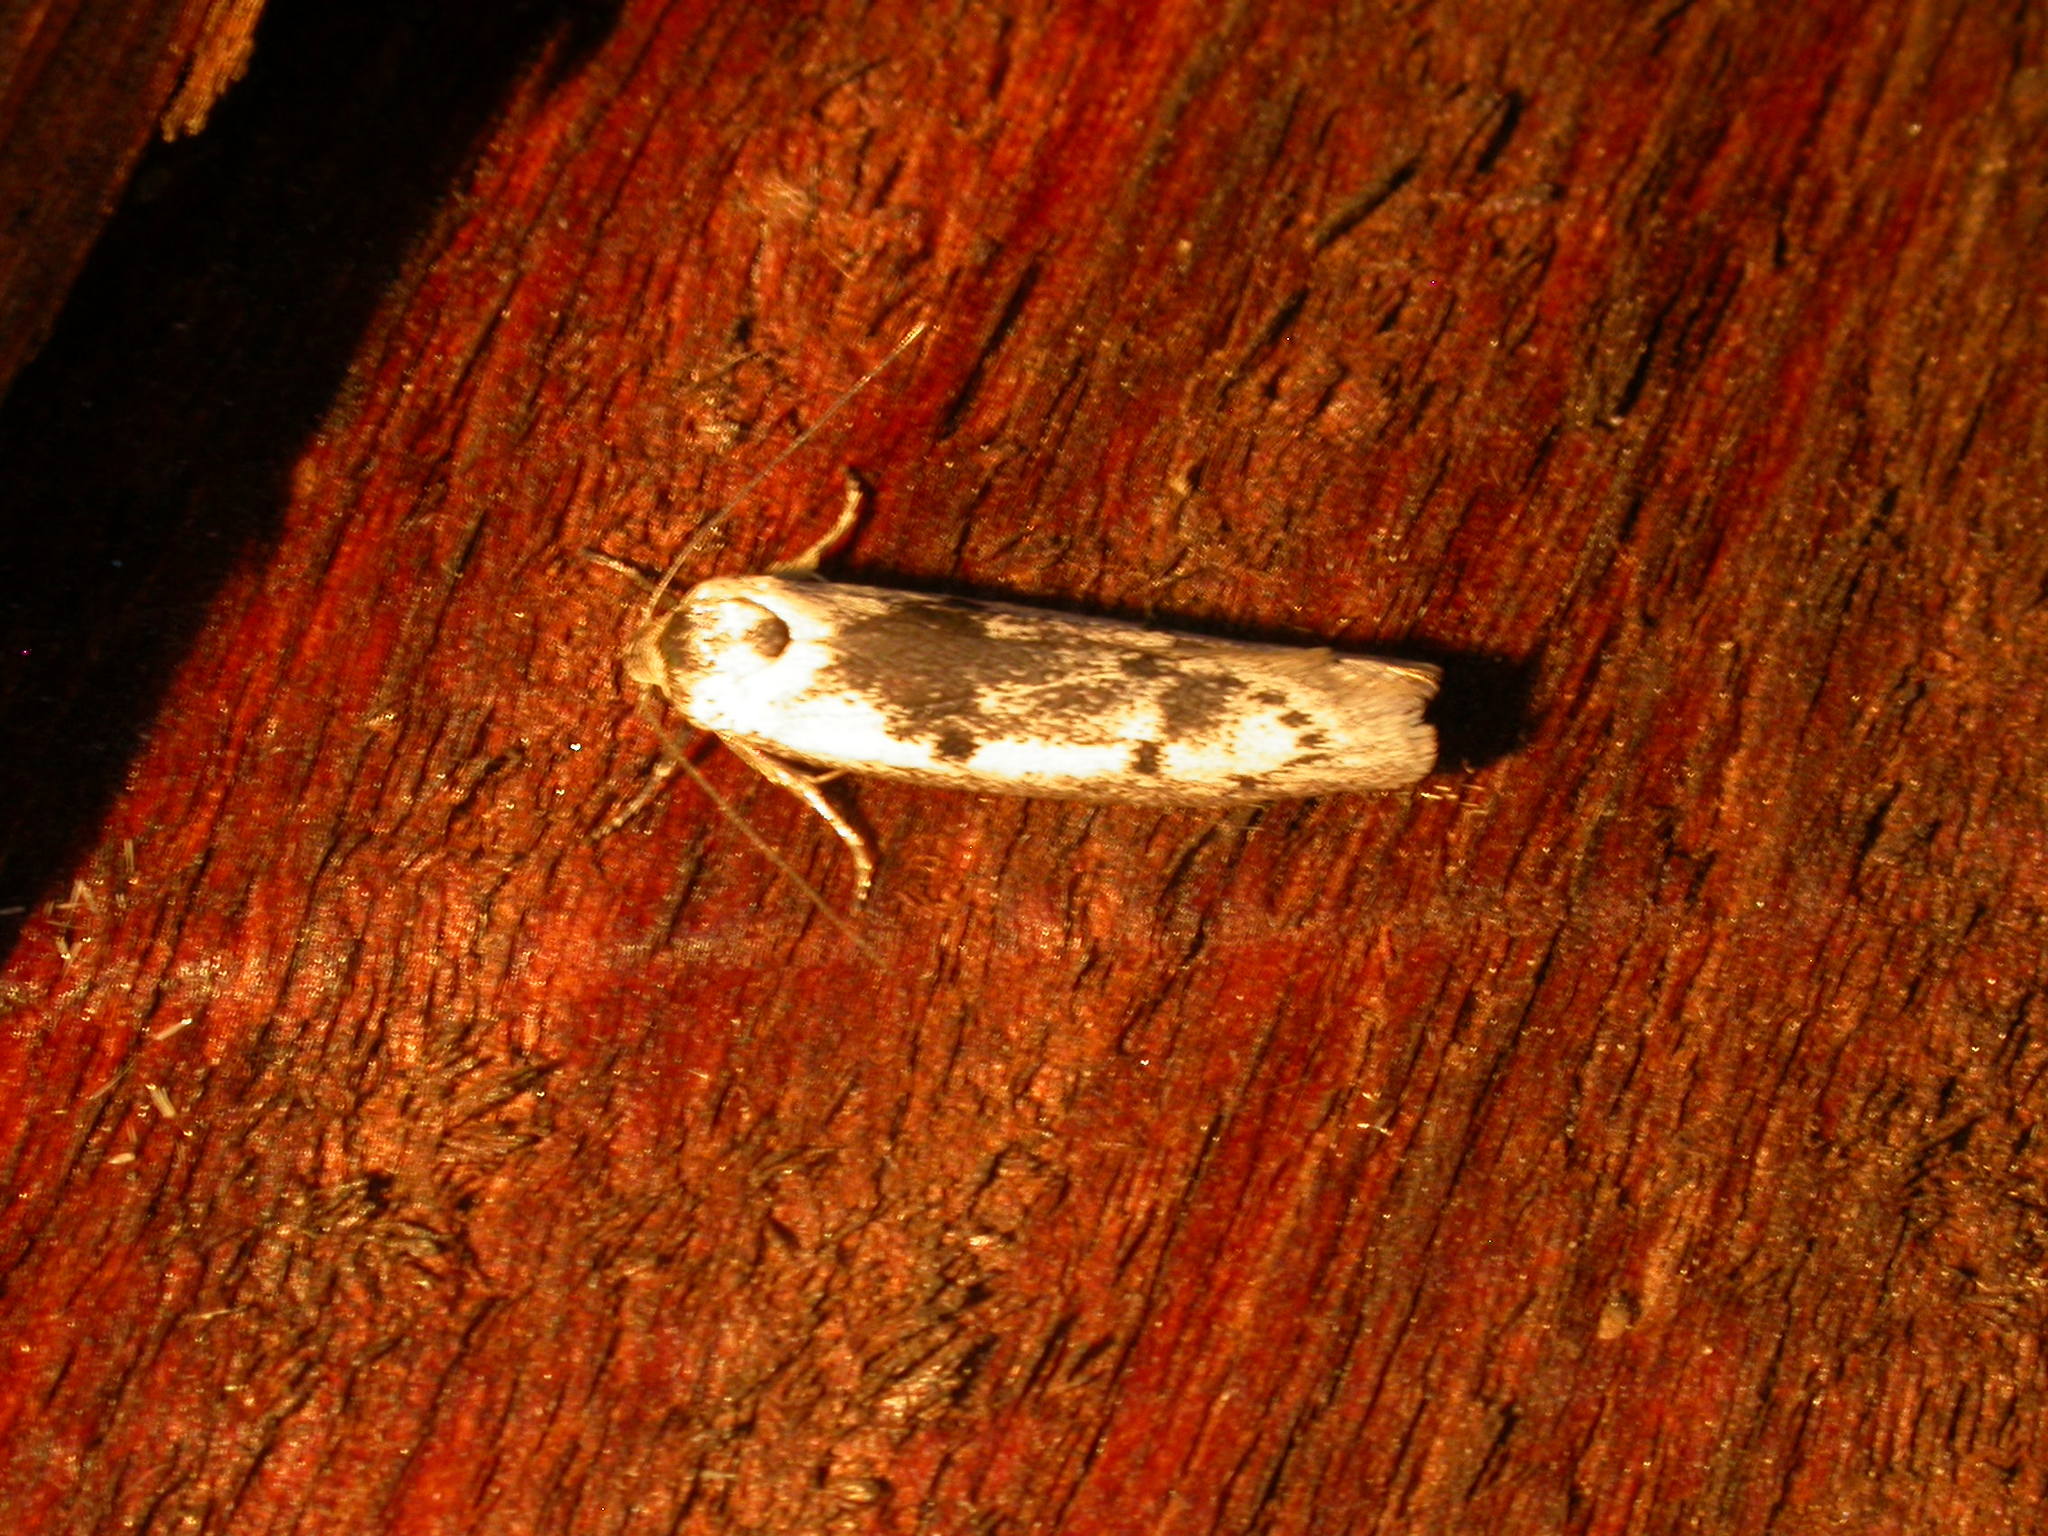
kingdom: Animalia
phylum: Arthropoda
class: Insecta
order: Lepidoptera
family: Oecophoridae
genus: Conobrosis
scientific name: Conobrosis acervata
